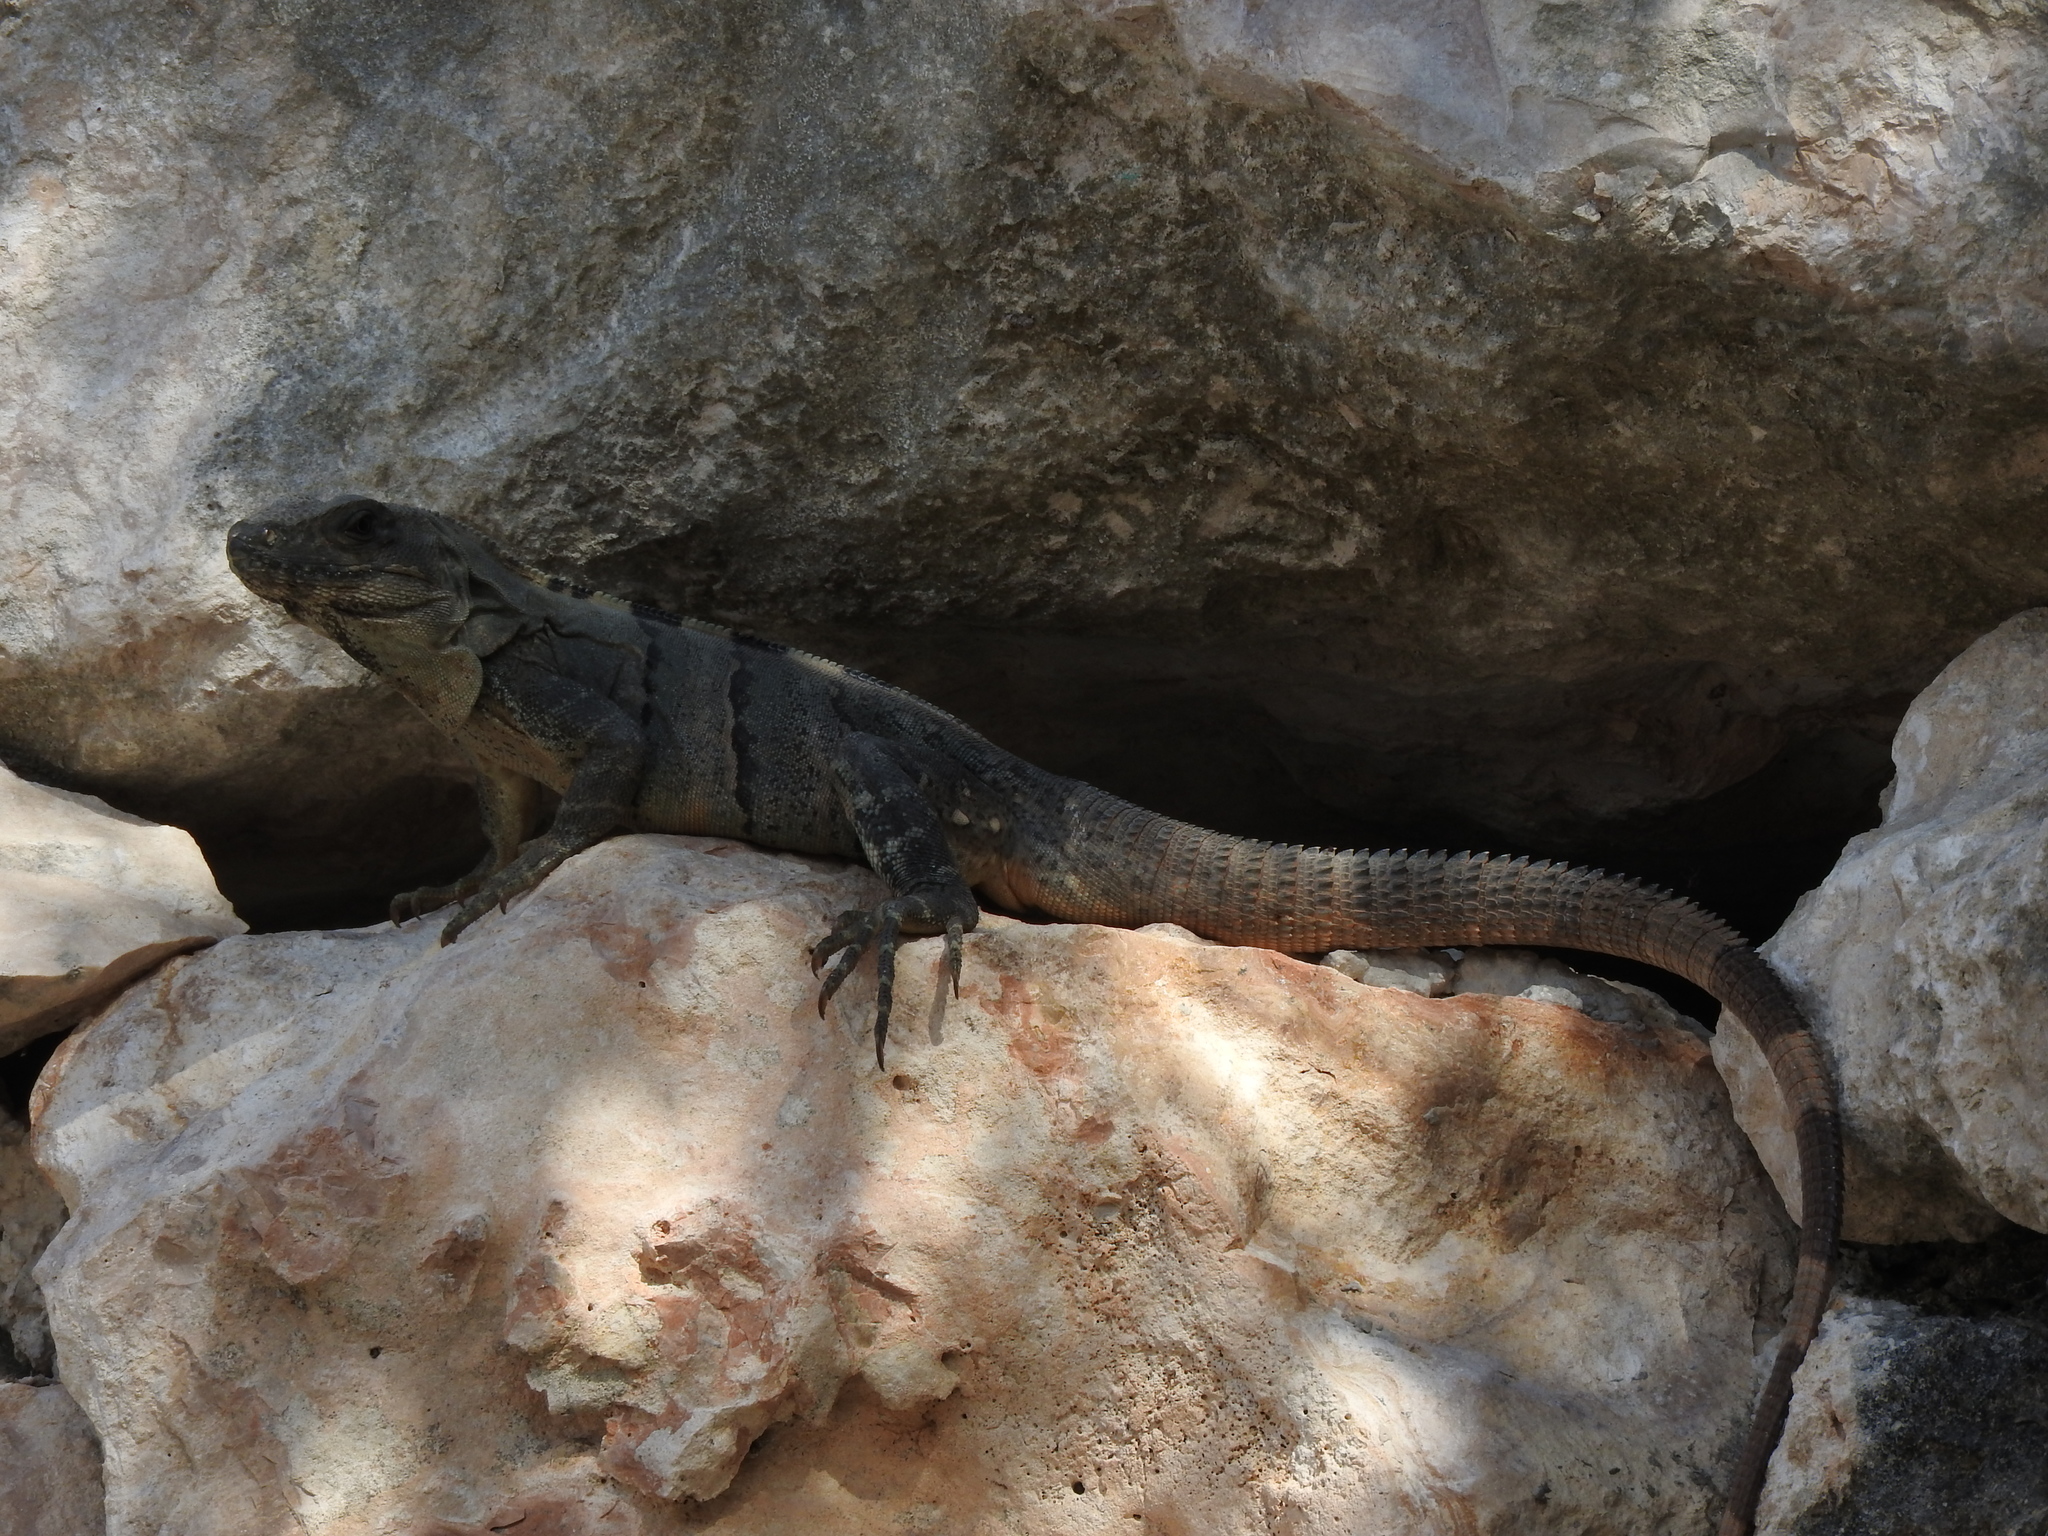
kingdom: Animalia
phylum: Chordata
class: Squamata
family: Iguanidae
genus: Ctenosaura
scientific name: Ctenosaura similis
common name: Black spiny-tailed iguana
